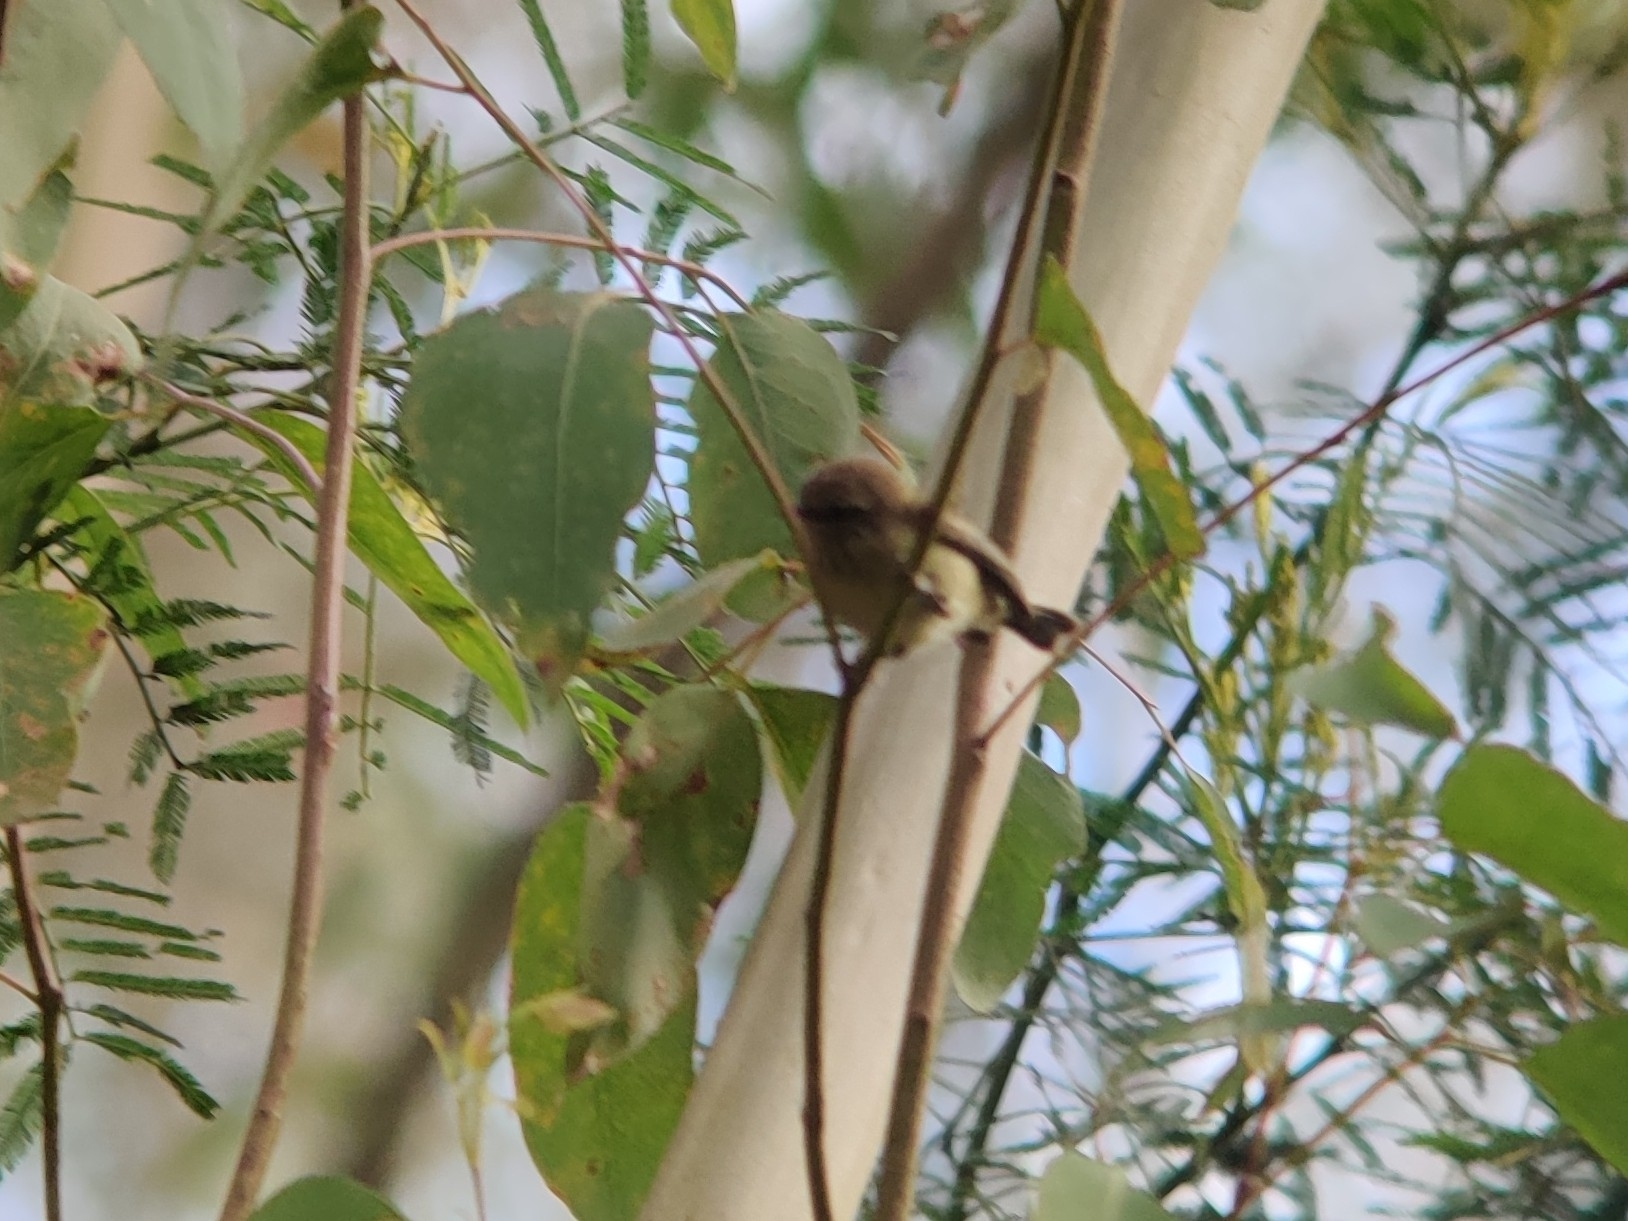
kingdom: Animalia
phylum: Chordata
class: Aves
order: Passeriformes
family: Acanthizidae
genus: Acanthiza
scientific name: Acanthiza lineata
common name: Striated thornbill
